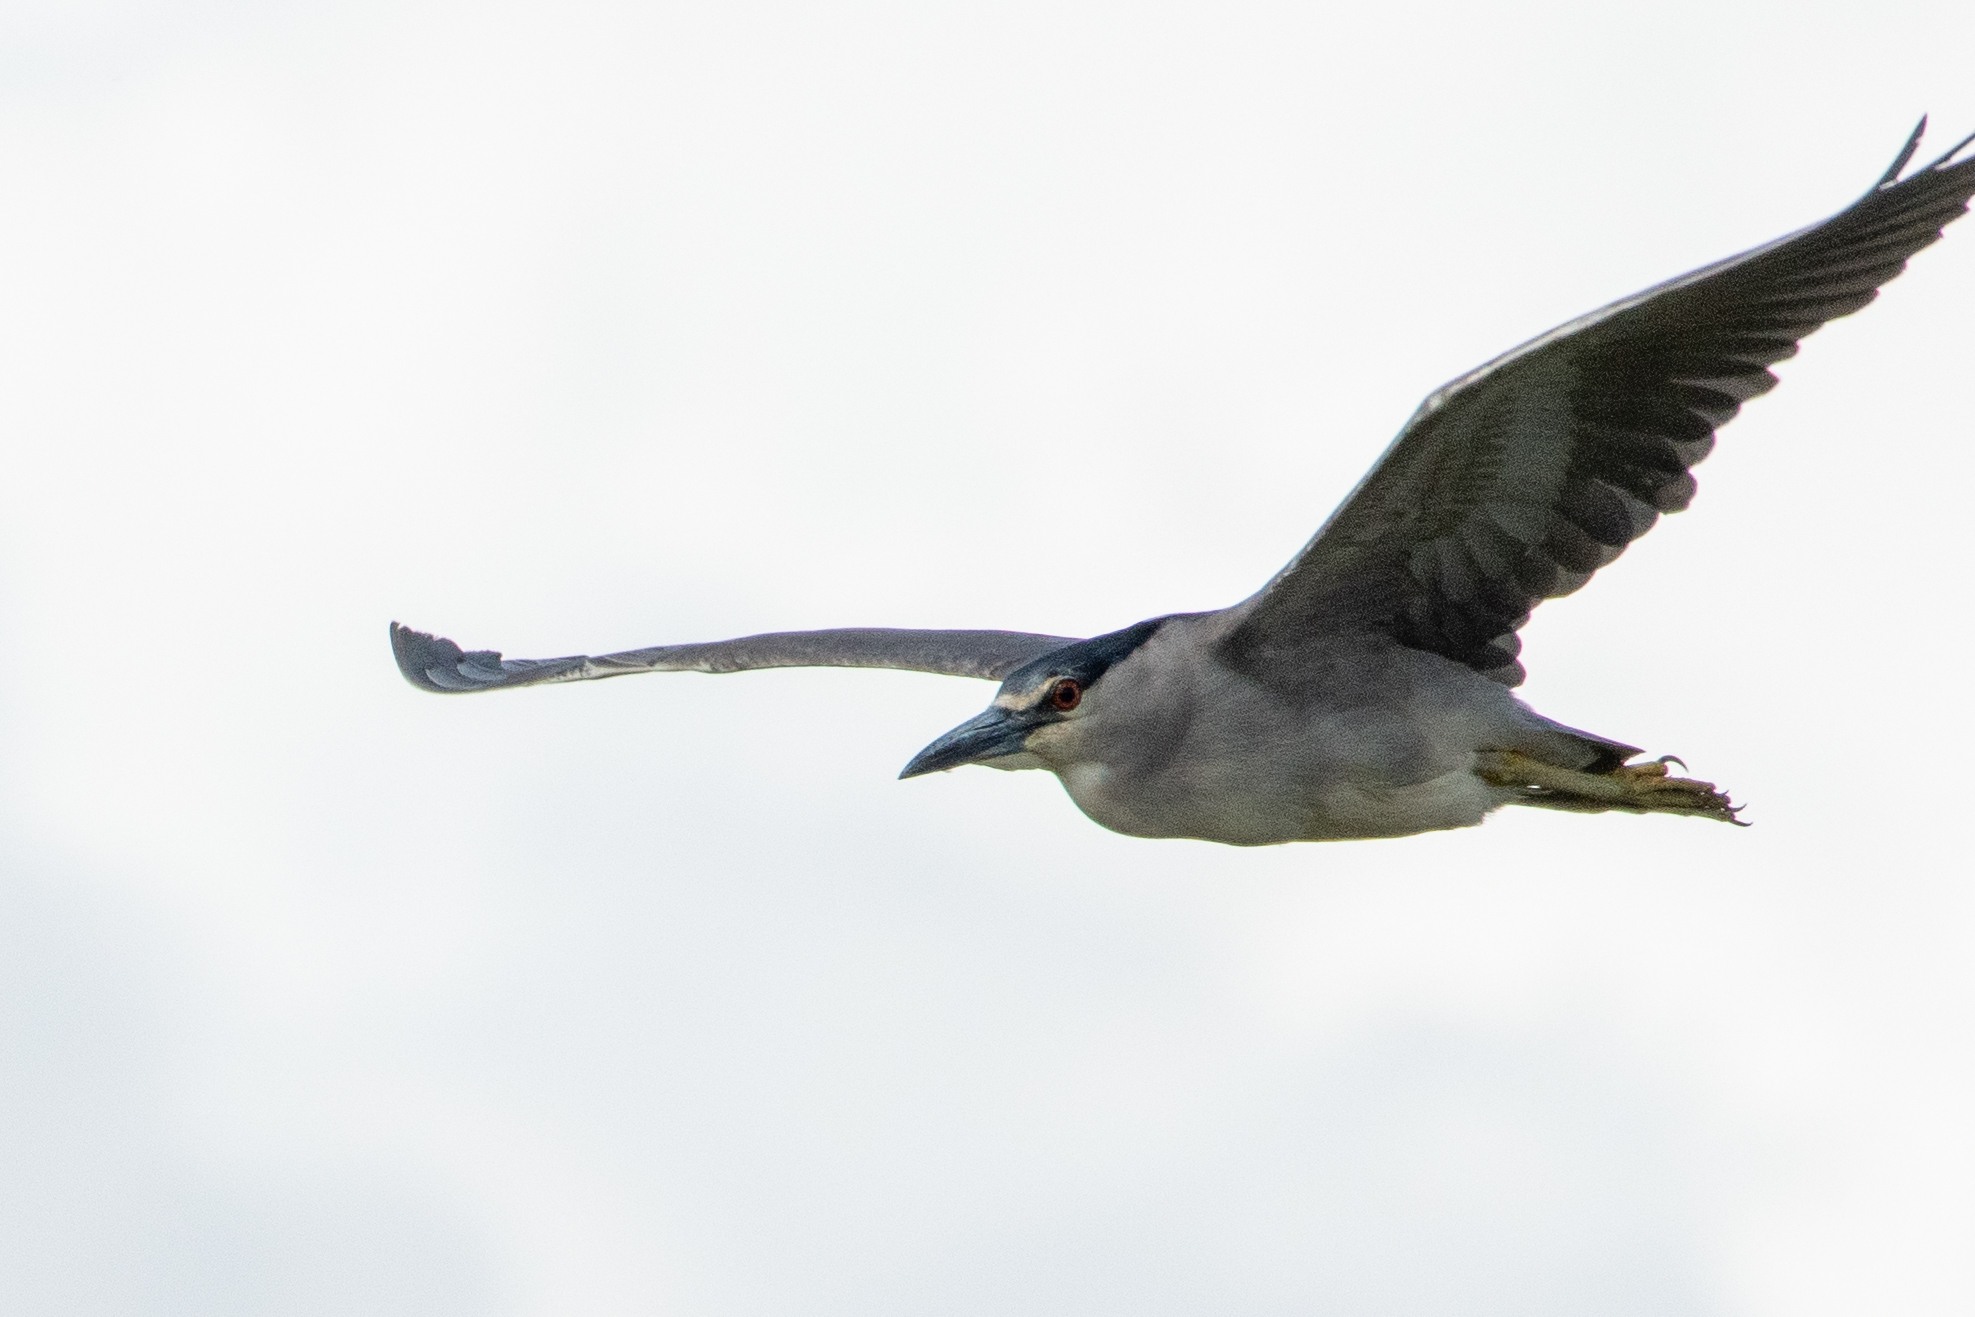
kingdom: Animalia
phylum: Chordata
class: Aves
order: Pelecaniformes
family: Ardeidae
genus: Nycticorax
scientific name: Nycticorax nycticorax
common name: Black-crowned night heron
